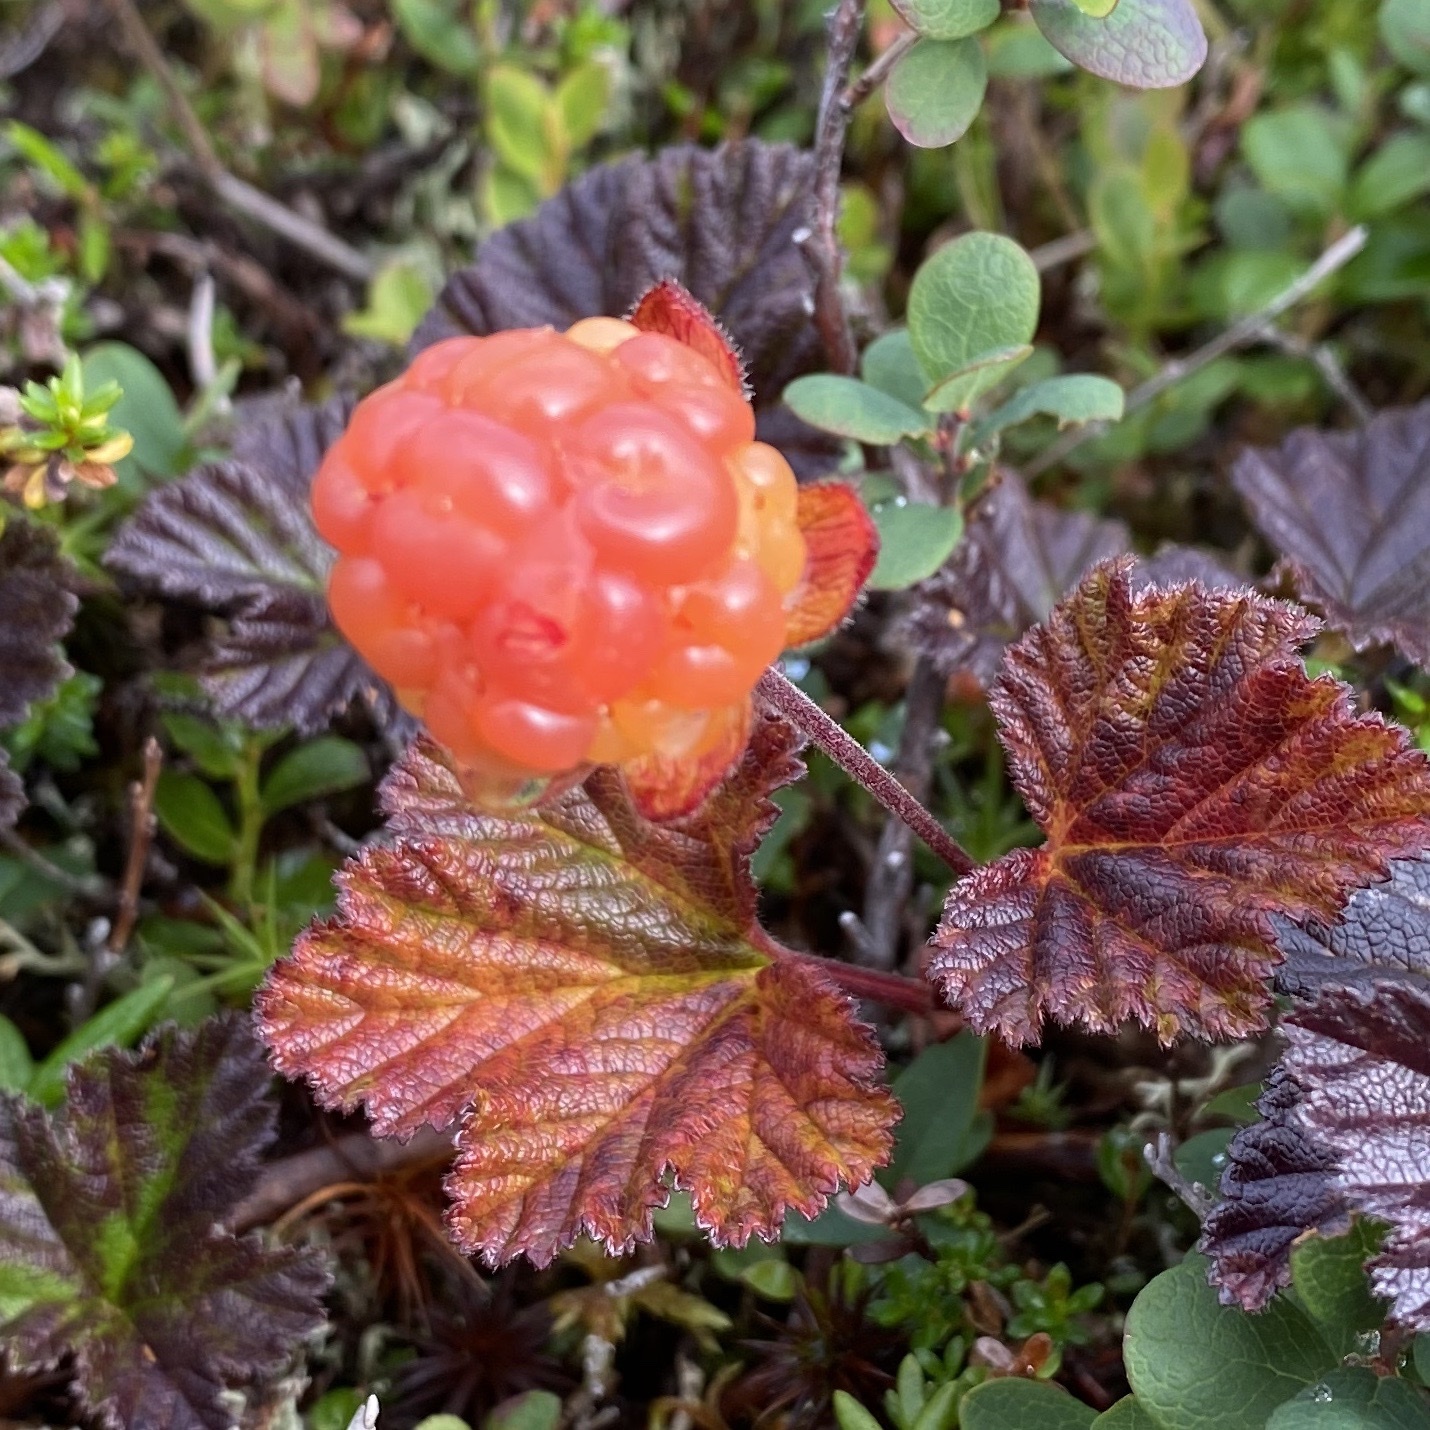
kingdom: Plantae
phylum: Tracheophyta
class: Magnoliopsida
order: Rosales
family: Rosaceae
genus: Rubus
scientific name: Rubus chamaemorus
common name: Cloudberry
